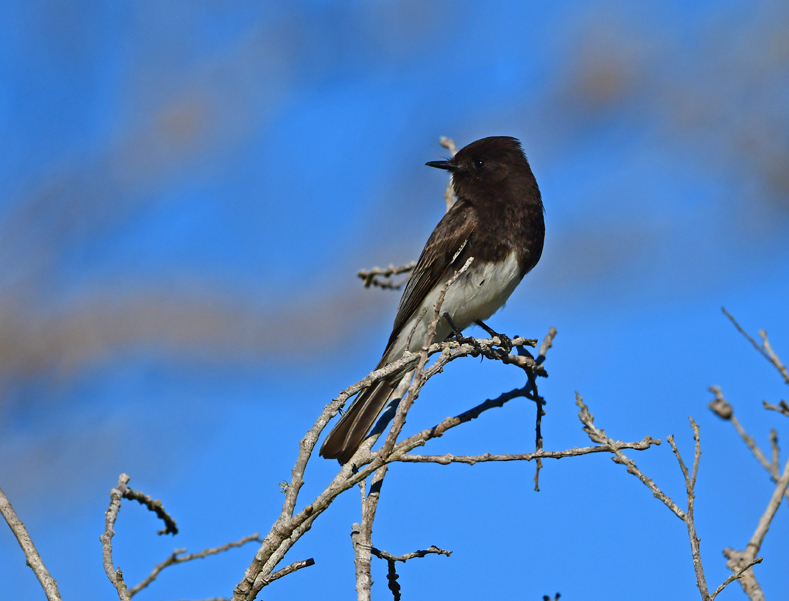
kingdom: Animalia
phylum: Chordata
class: Aves
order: Passeriformes
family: Tyrannidae
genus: Sayornis
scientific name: Sayornis nigricans
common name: Black phoebe
